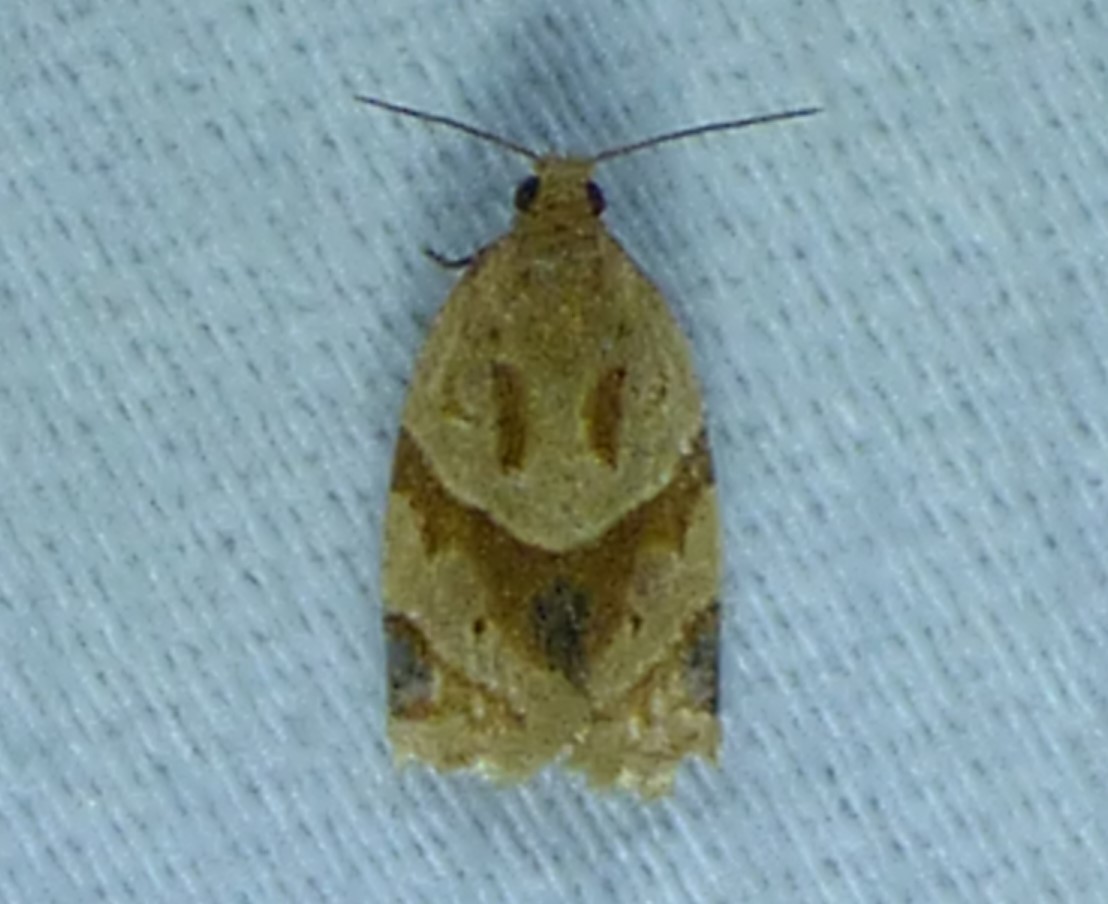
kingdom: Animalia
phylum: Arthropoda
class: Insecta
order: Lepidoptera
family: Tortricidae
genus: Clepsis
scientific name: Clepsis peritana
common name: Garden tortrix
